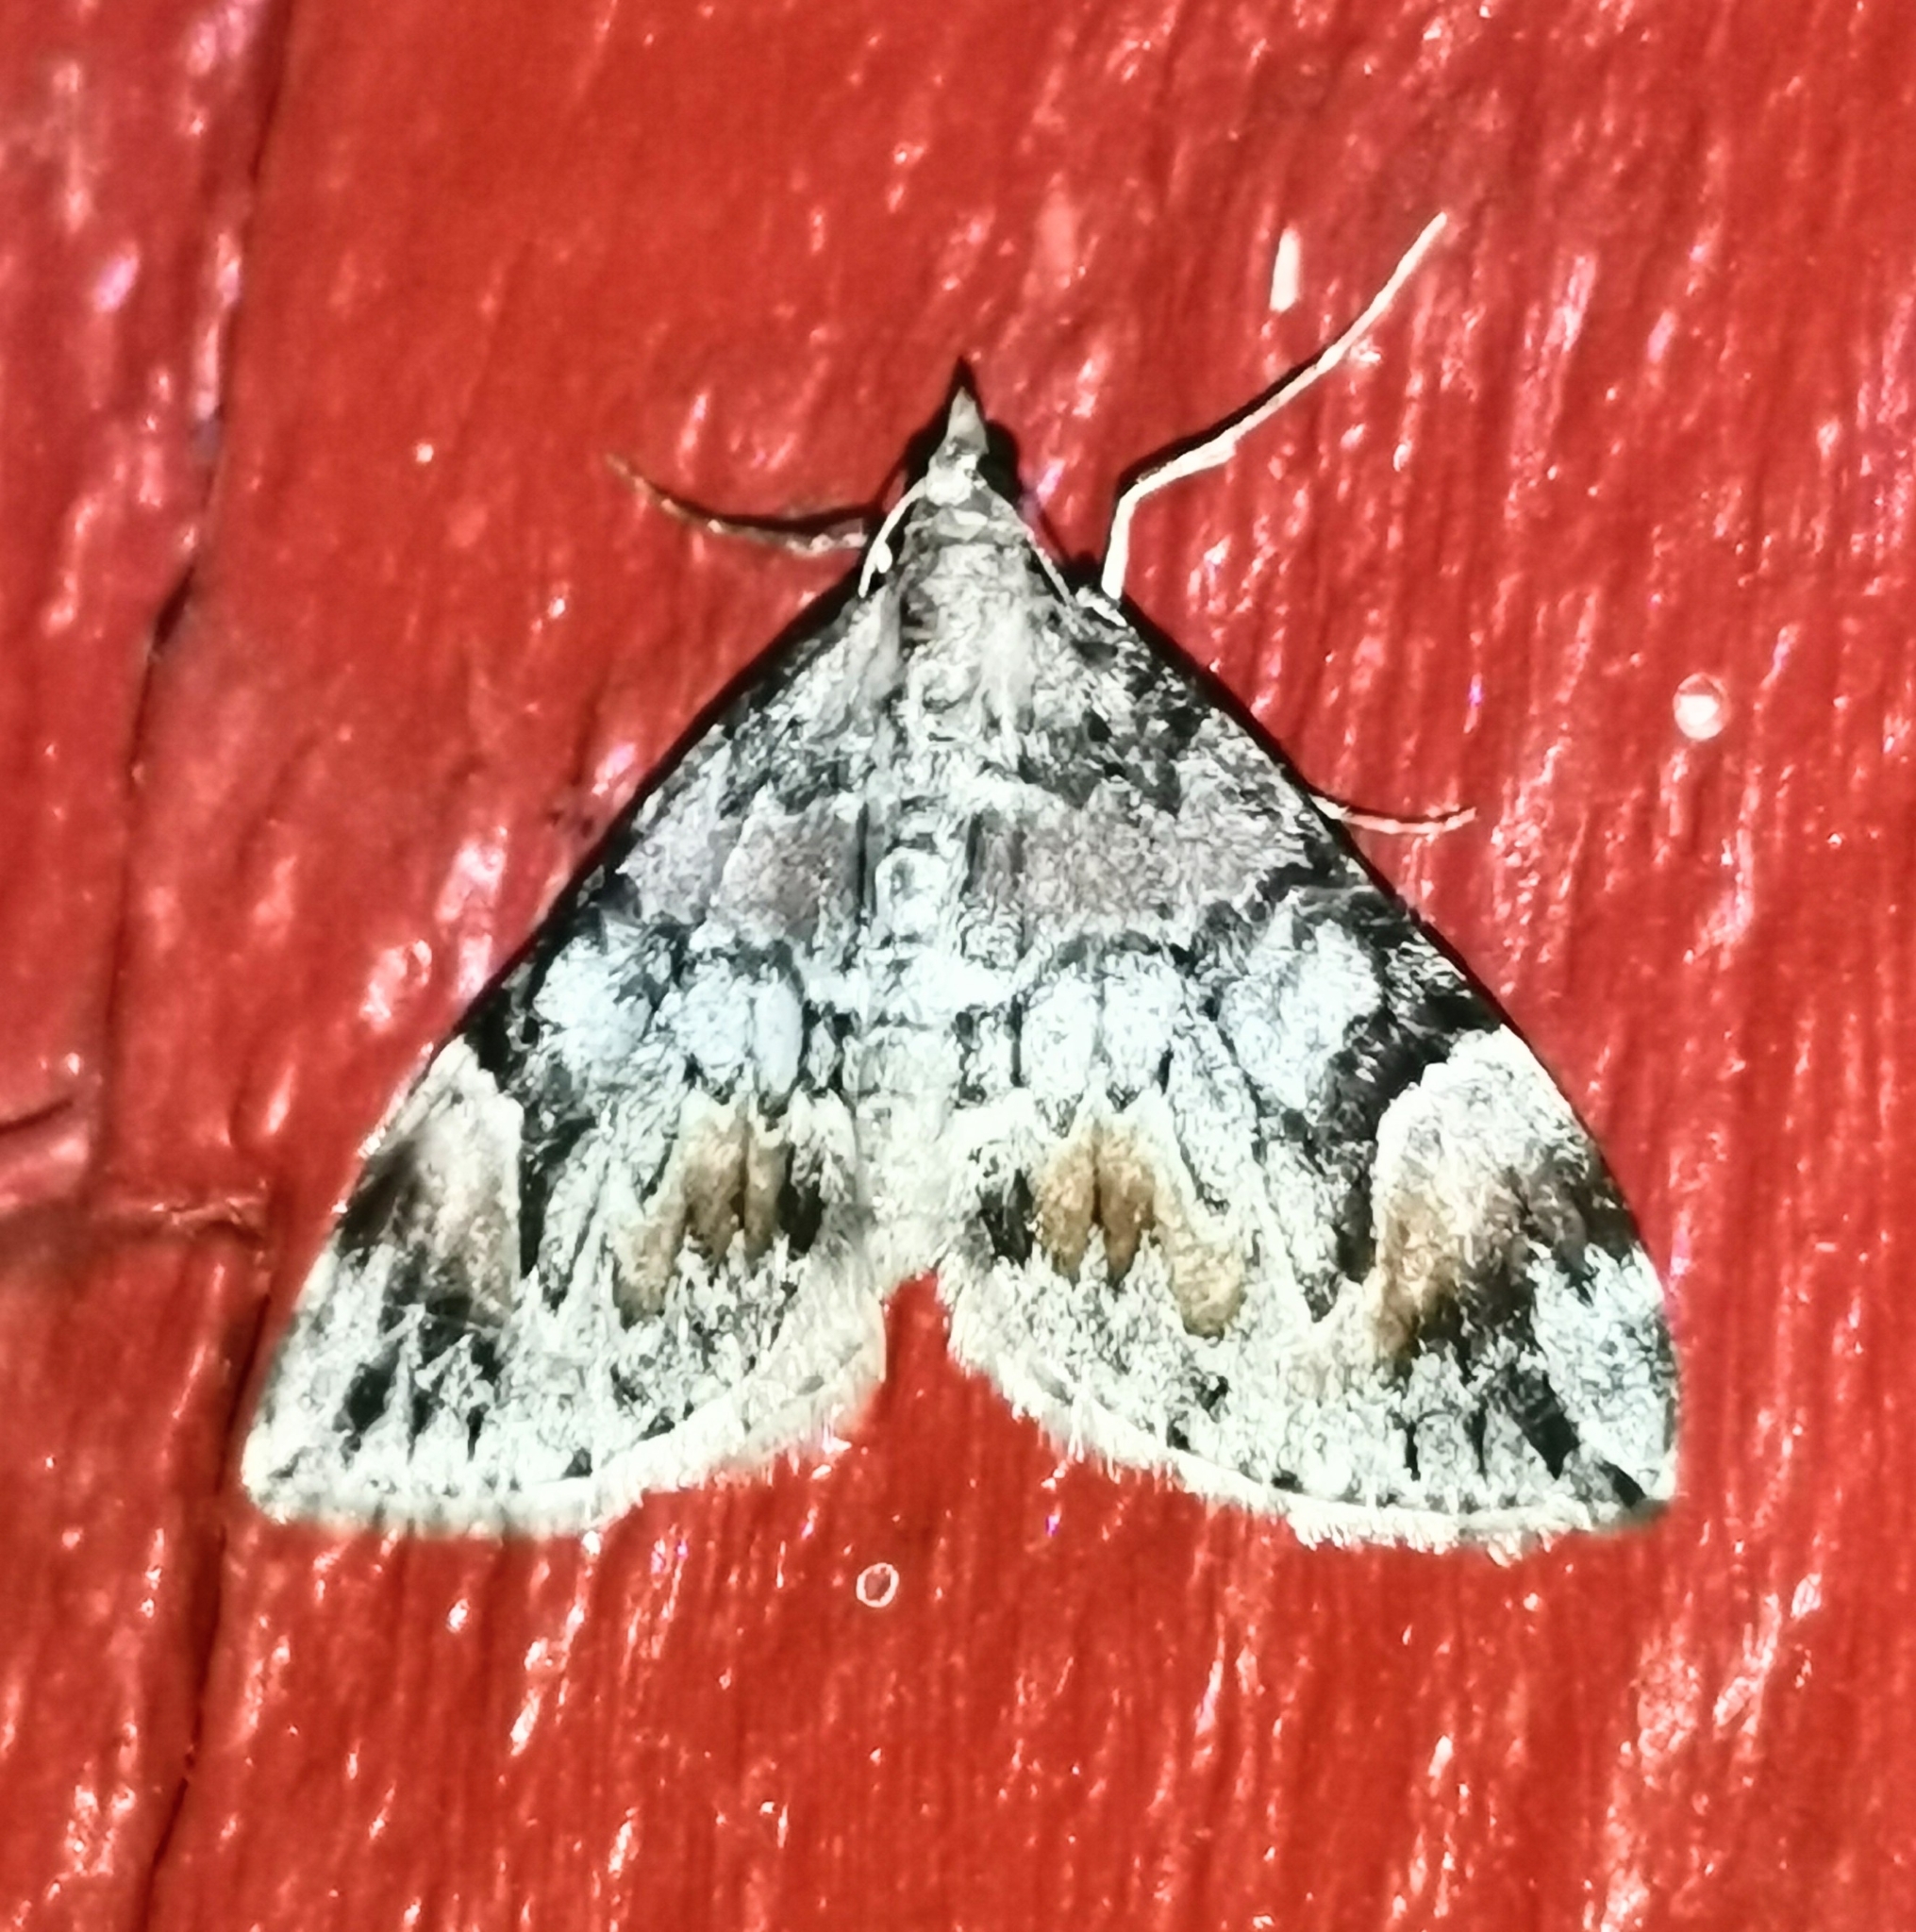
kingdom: Animalia
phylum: Arthropoda
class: Insecta
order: Lepidoptera
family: Geometridae
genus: Dysstroma
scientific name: Dysstroma citrata
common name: Dark marbled carpet
